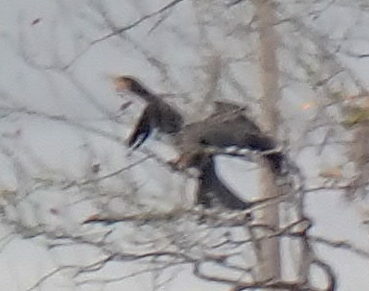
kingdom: Animalia
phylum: Chordata
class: Aves
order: Suliformes
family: Anhingidae
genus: Anhinga
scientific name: Anhinga anhinga
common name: Anhinga
